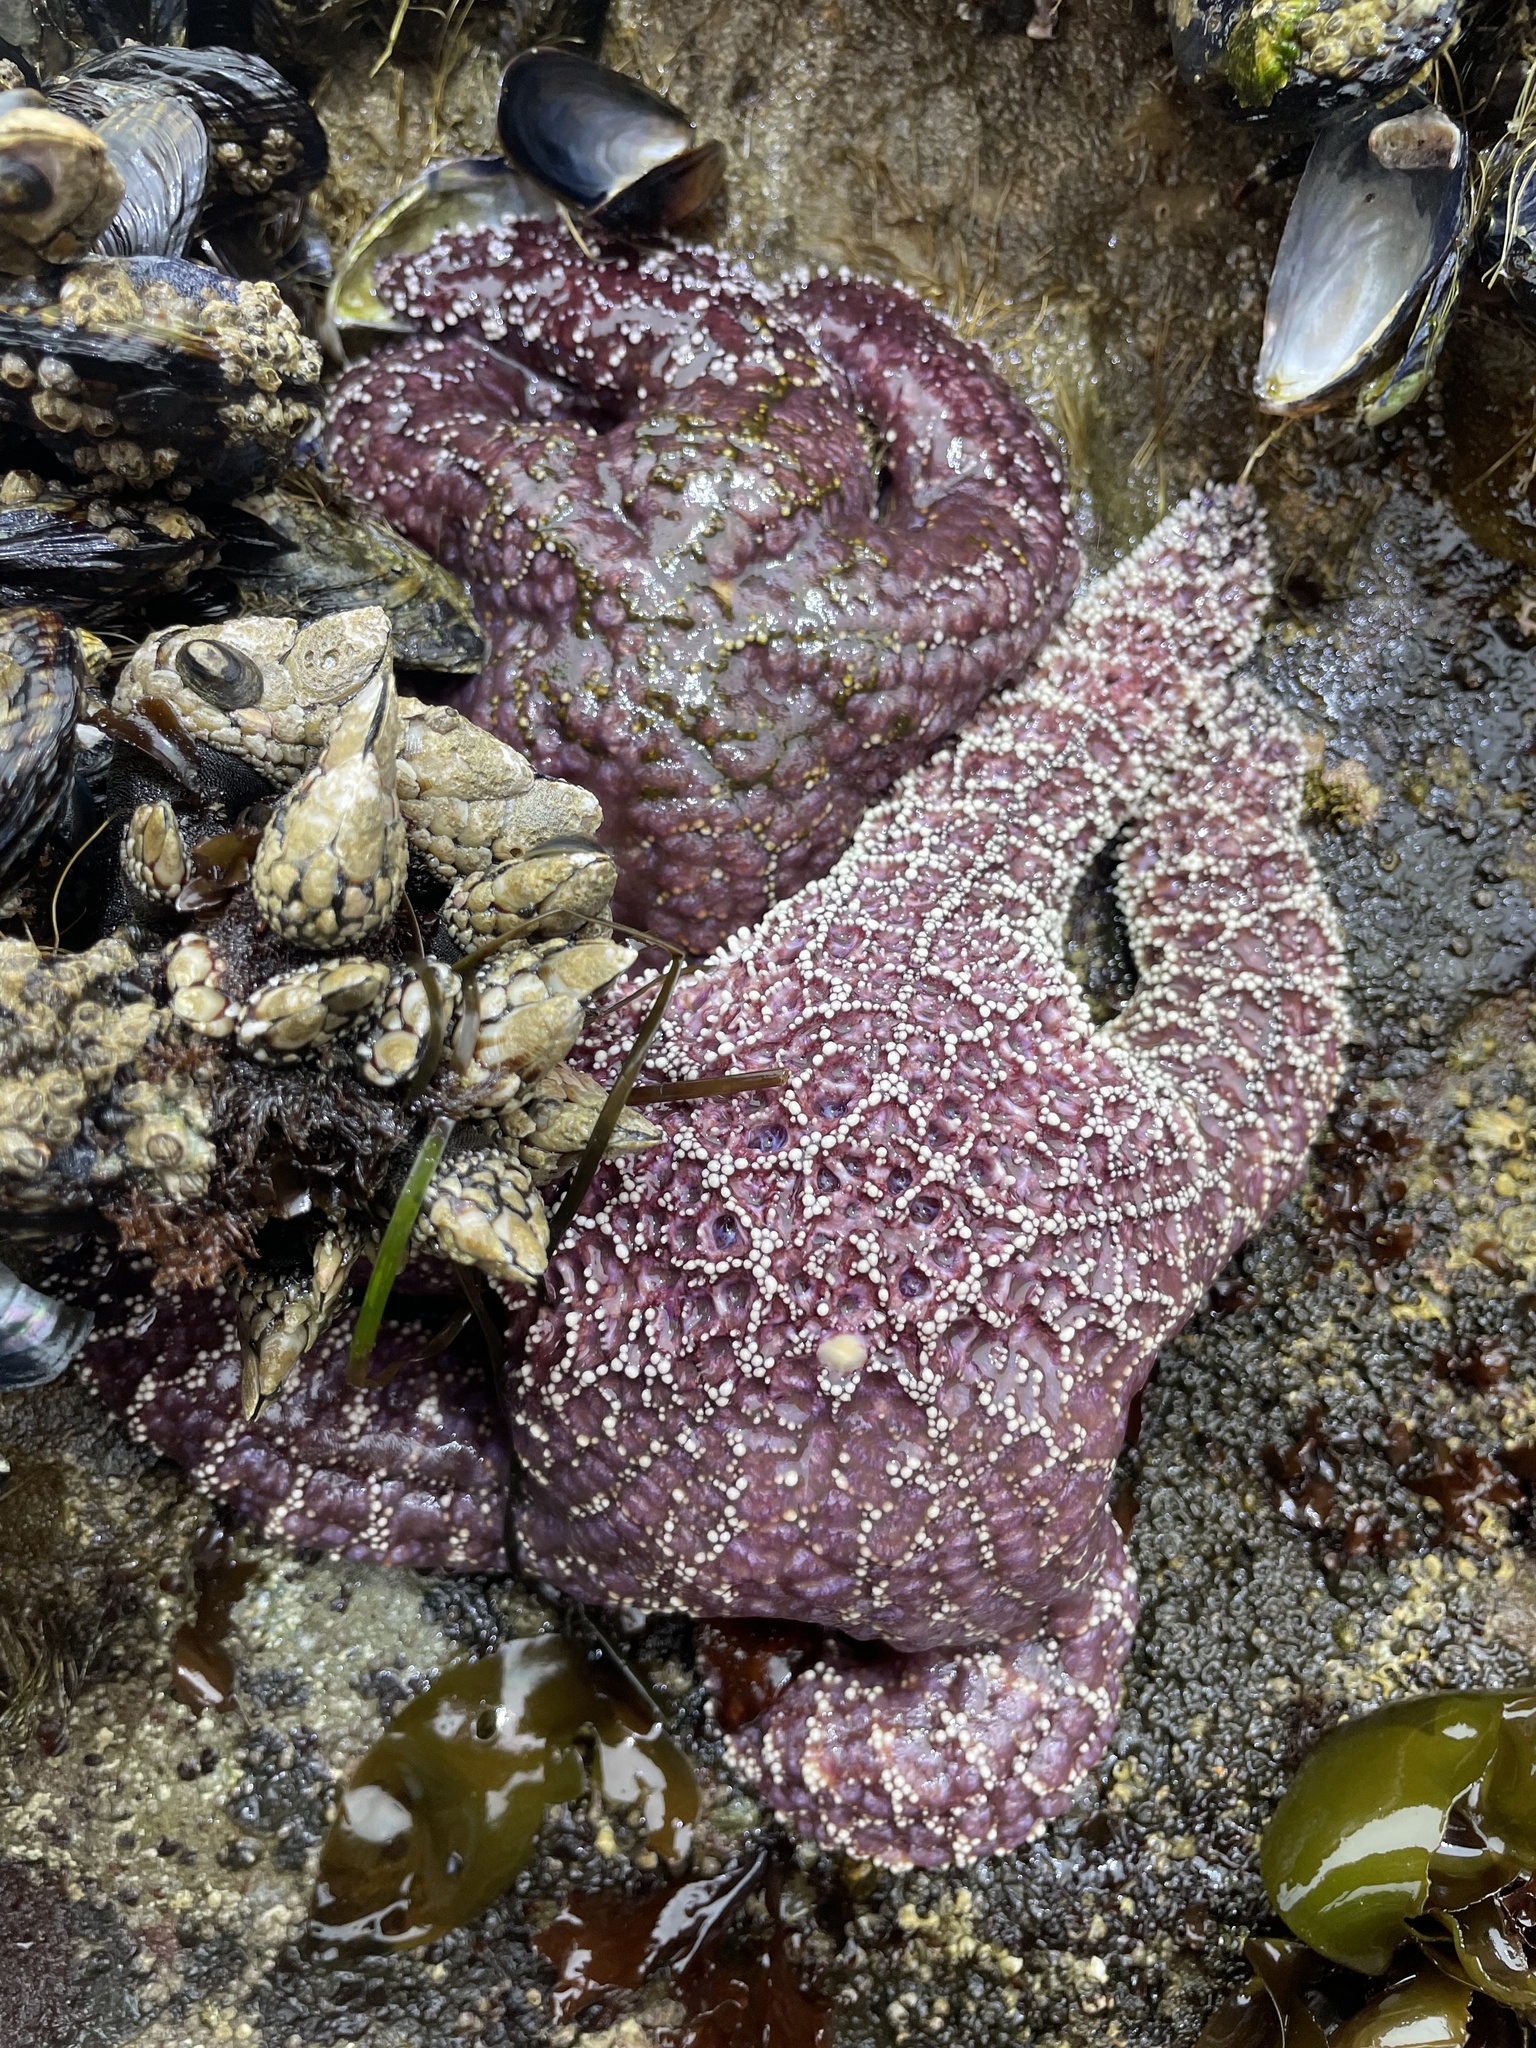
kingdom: Animalia
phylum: Echinodermata
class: Asteroidea
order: Forcipulatida
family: Asteriidae
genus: Pisaster
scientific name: Pisaster ochraceus
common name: Ochre stars
